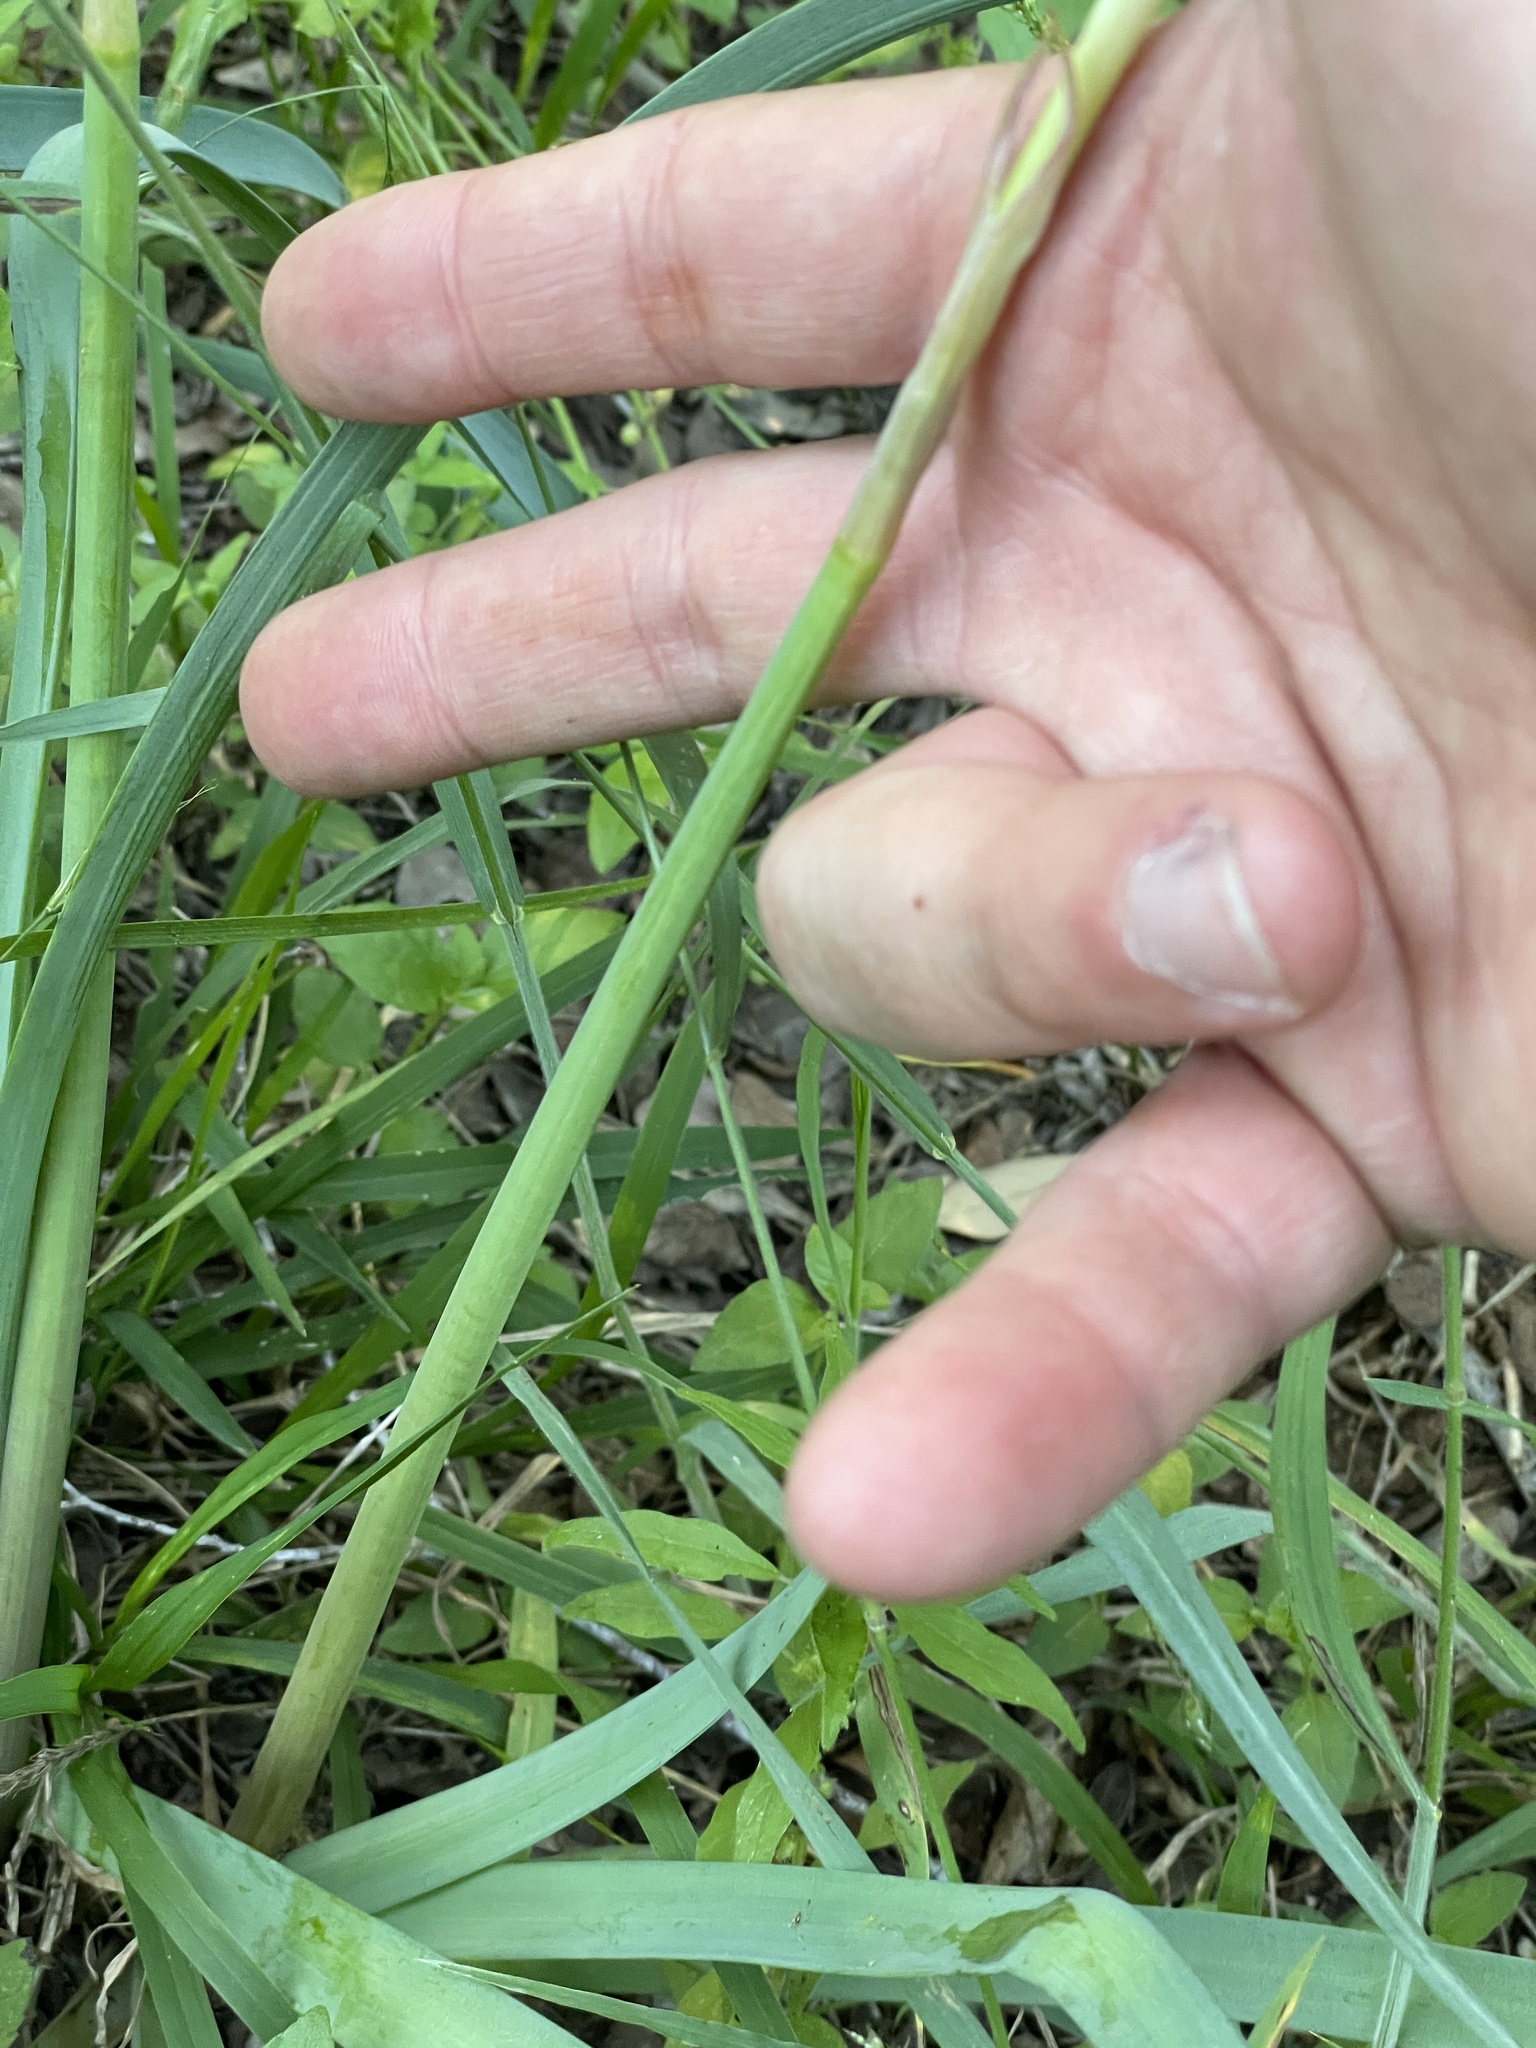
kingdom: Plantae
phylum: Tracheophyta
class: Liliopsida
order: Asparagales
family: Amaryllidaceae
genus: Zephyranthes
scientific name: Zephyranthes drummondii
